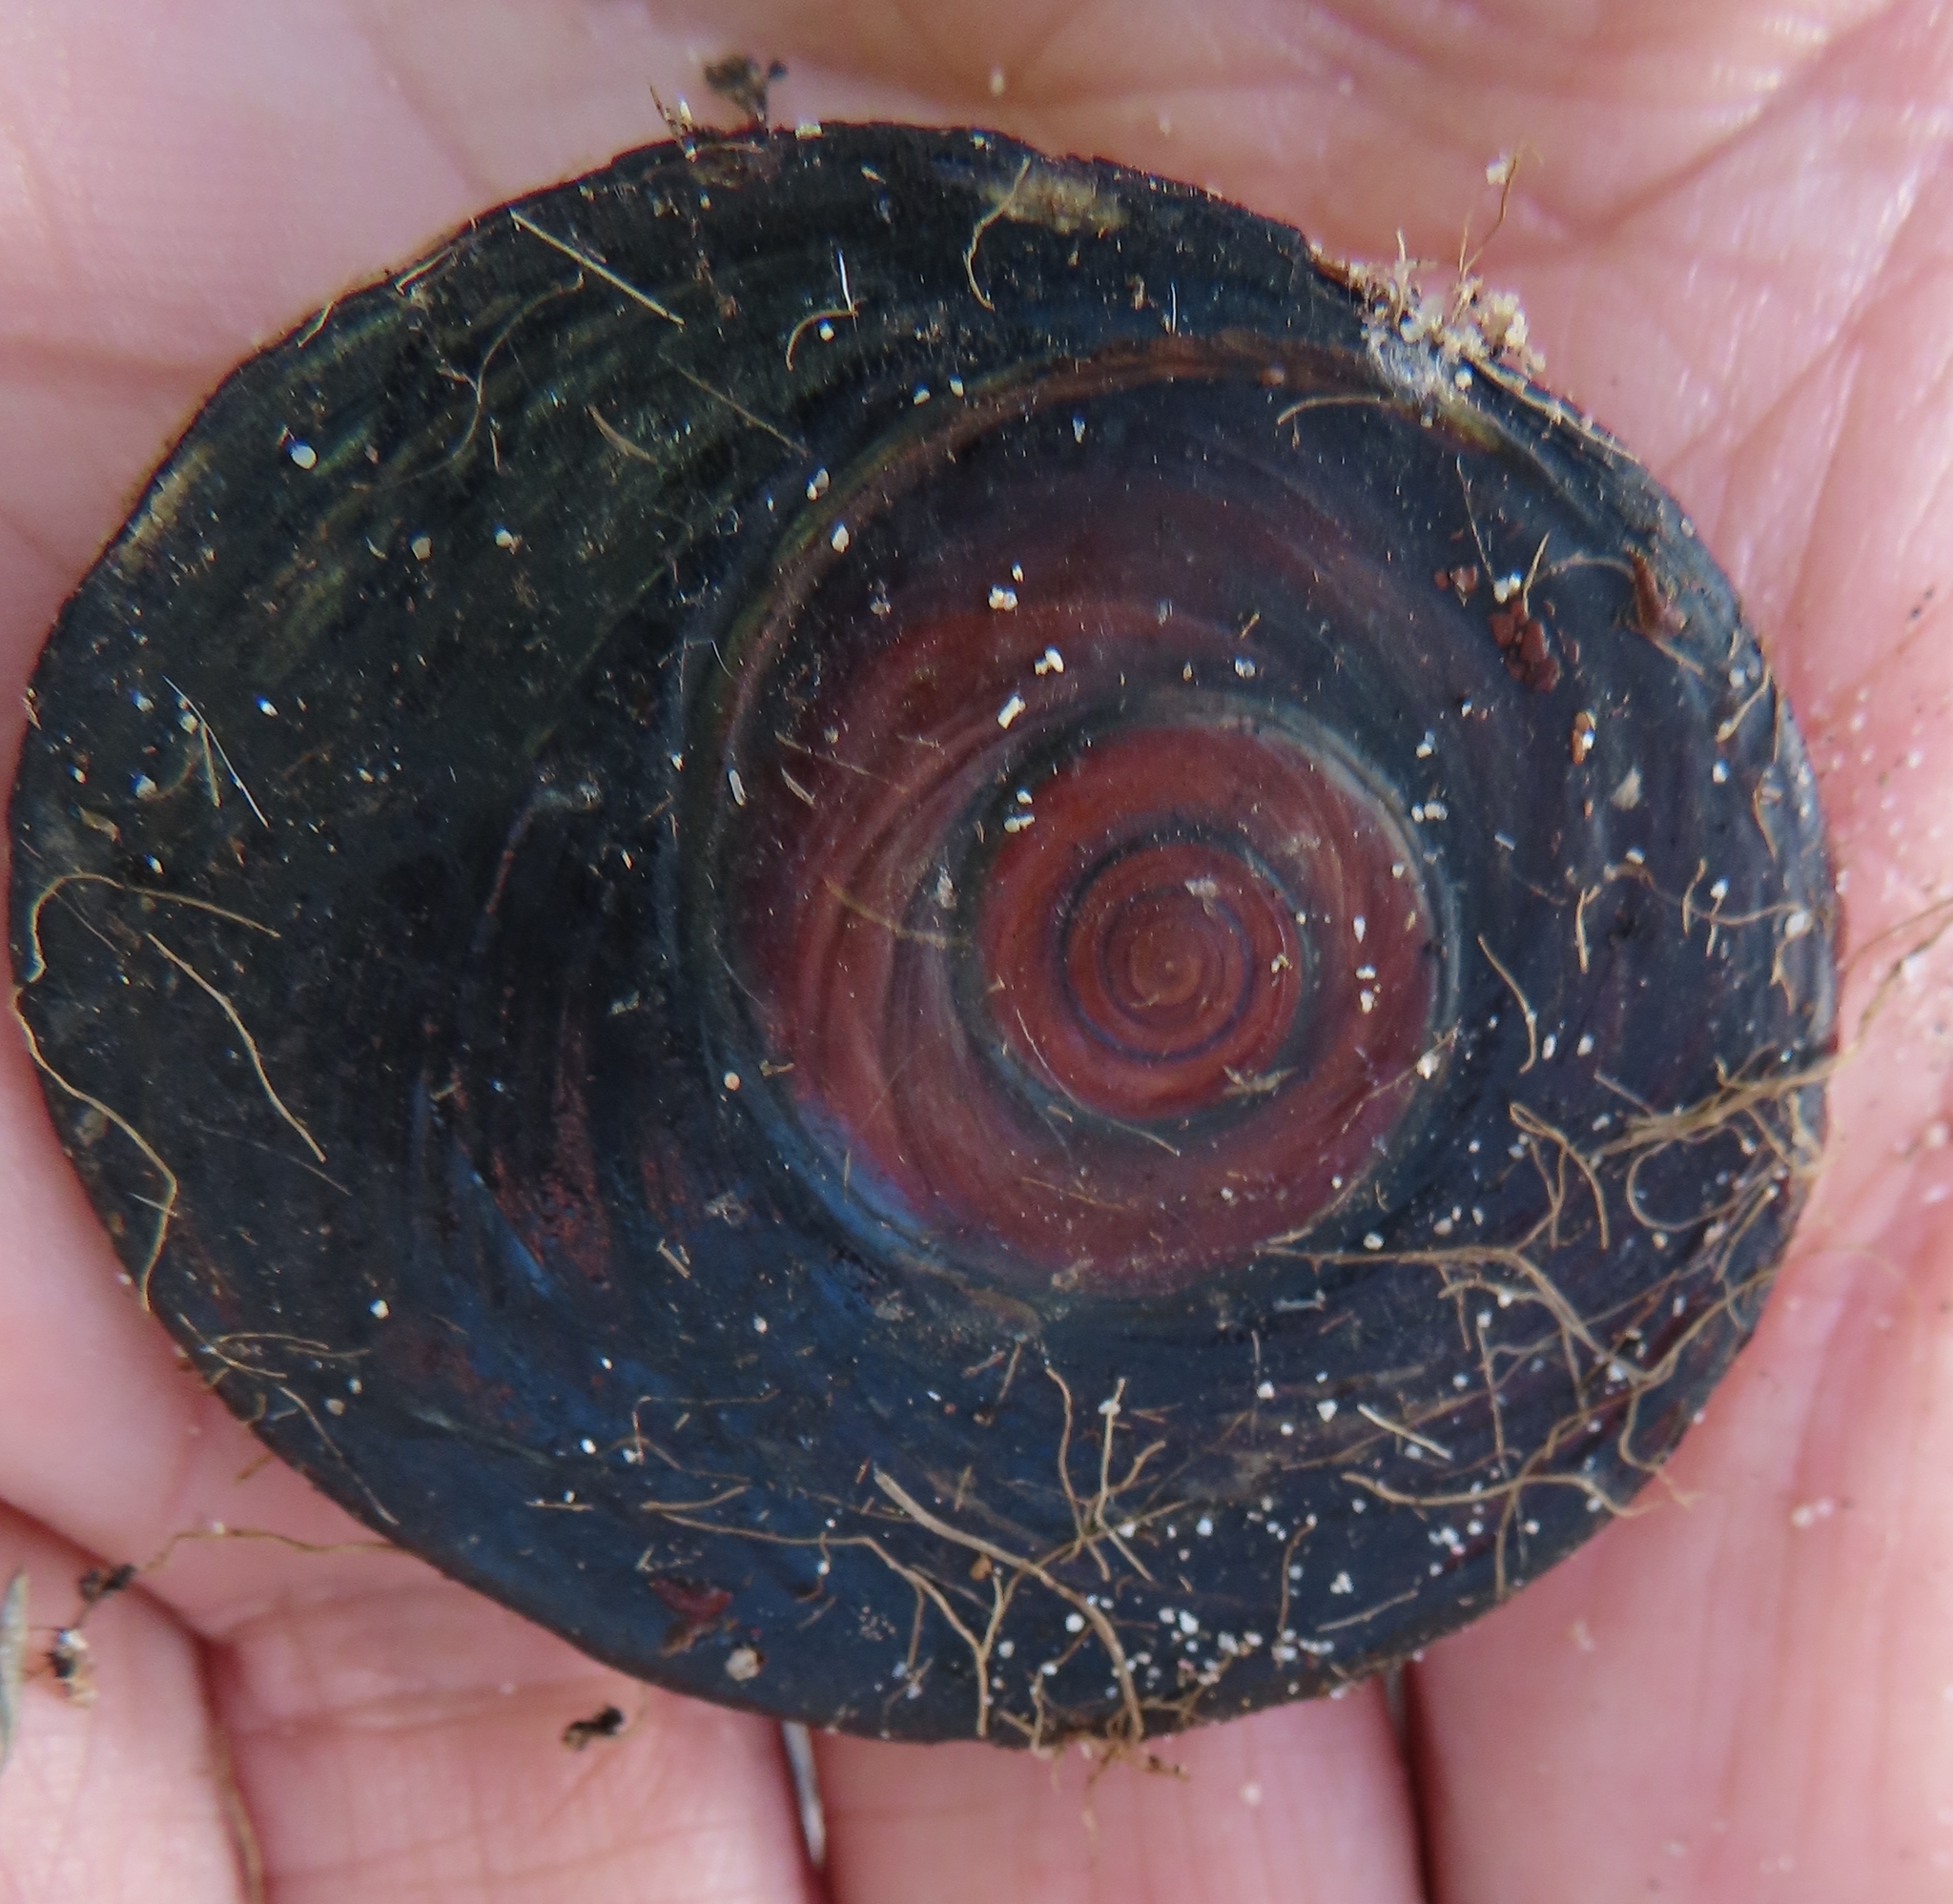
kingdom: Animalia
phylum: Mollusca
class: Gastropoda
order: Trochida
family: Turbinidae
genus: Turbo
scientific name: Turbo sarmaticus
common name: South african turban
